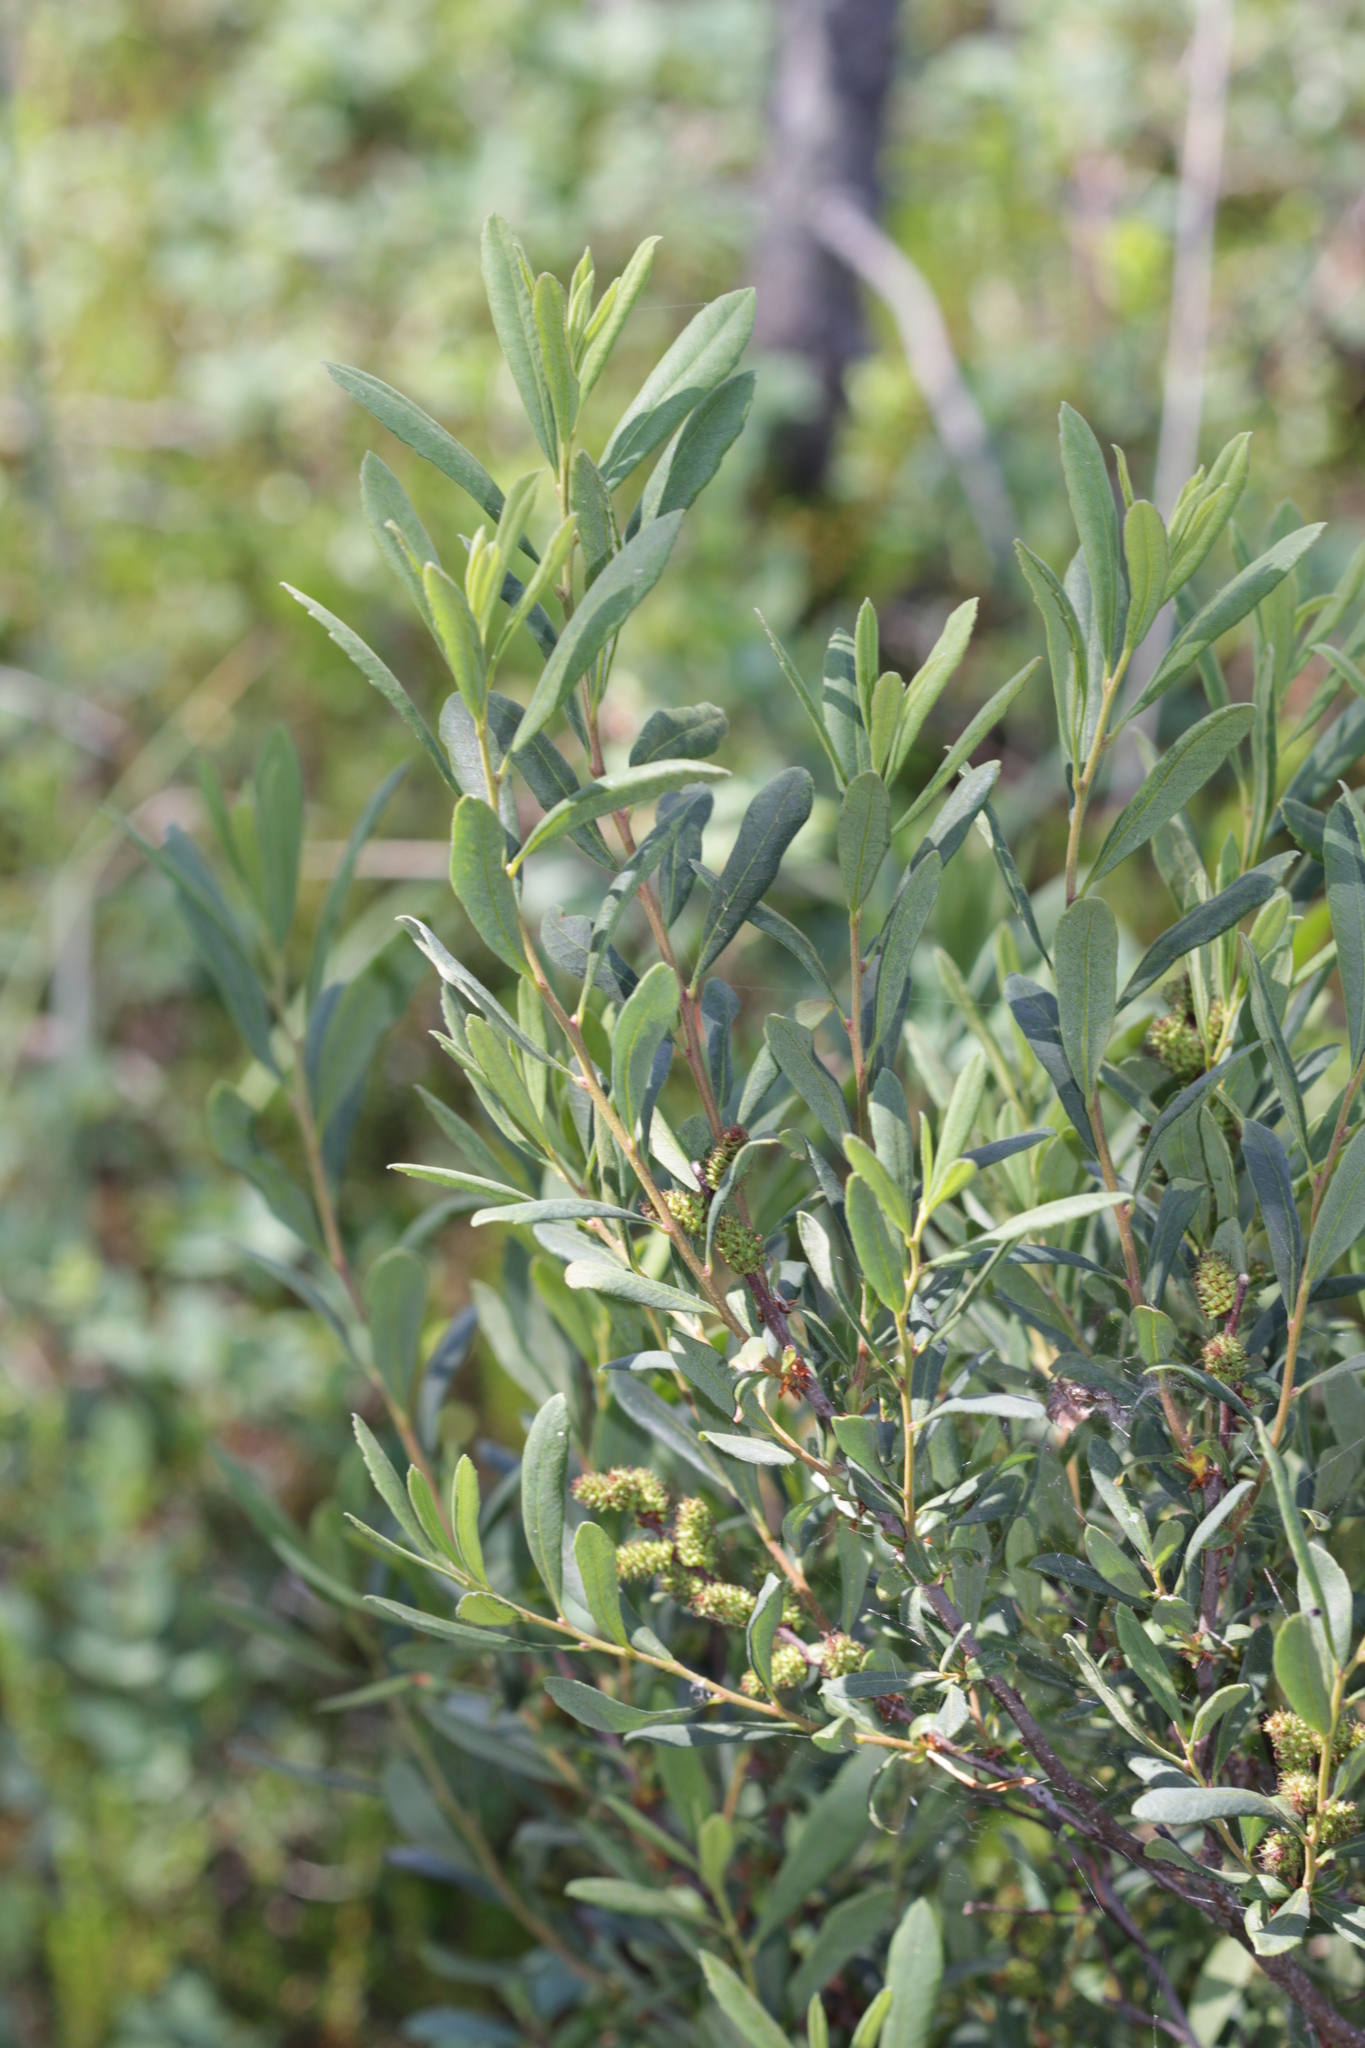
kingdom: Plantae
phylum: Tracheophyta
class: Magnoliopsida
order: Fagales
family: Myricaceae
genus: Myrica
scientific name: Myrica gale
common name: Sweet gale
